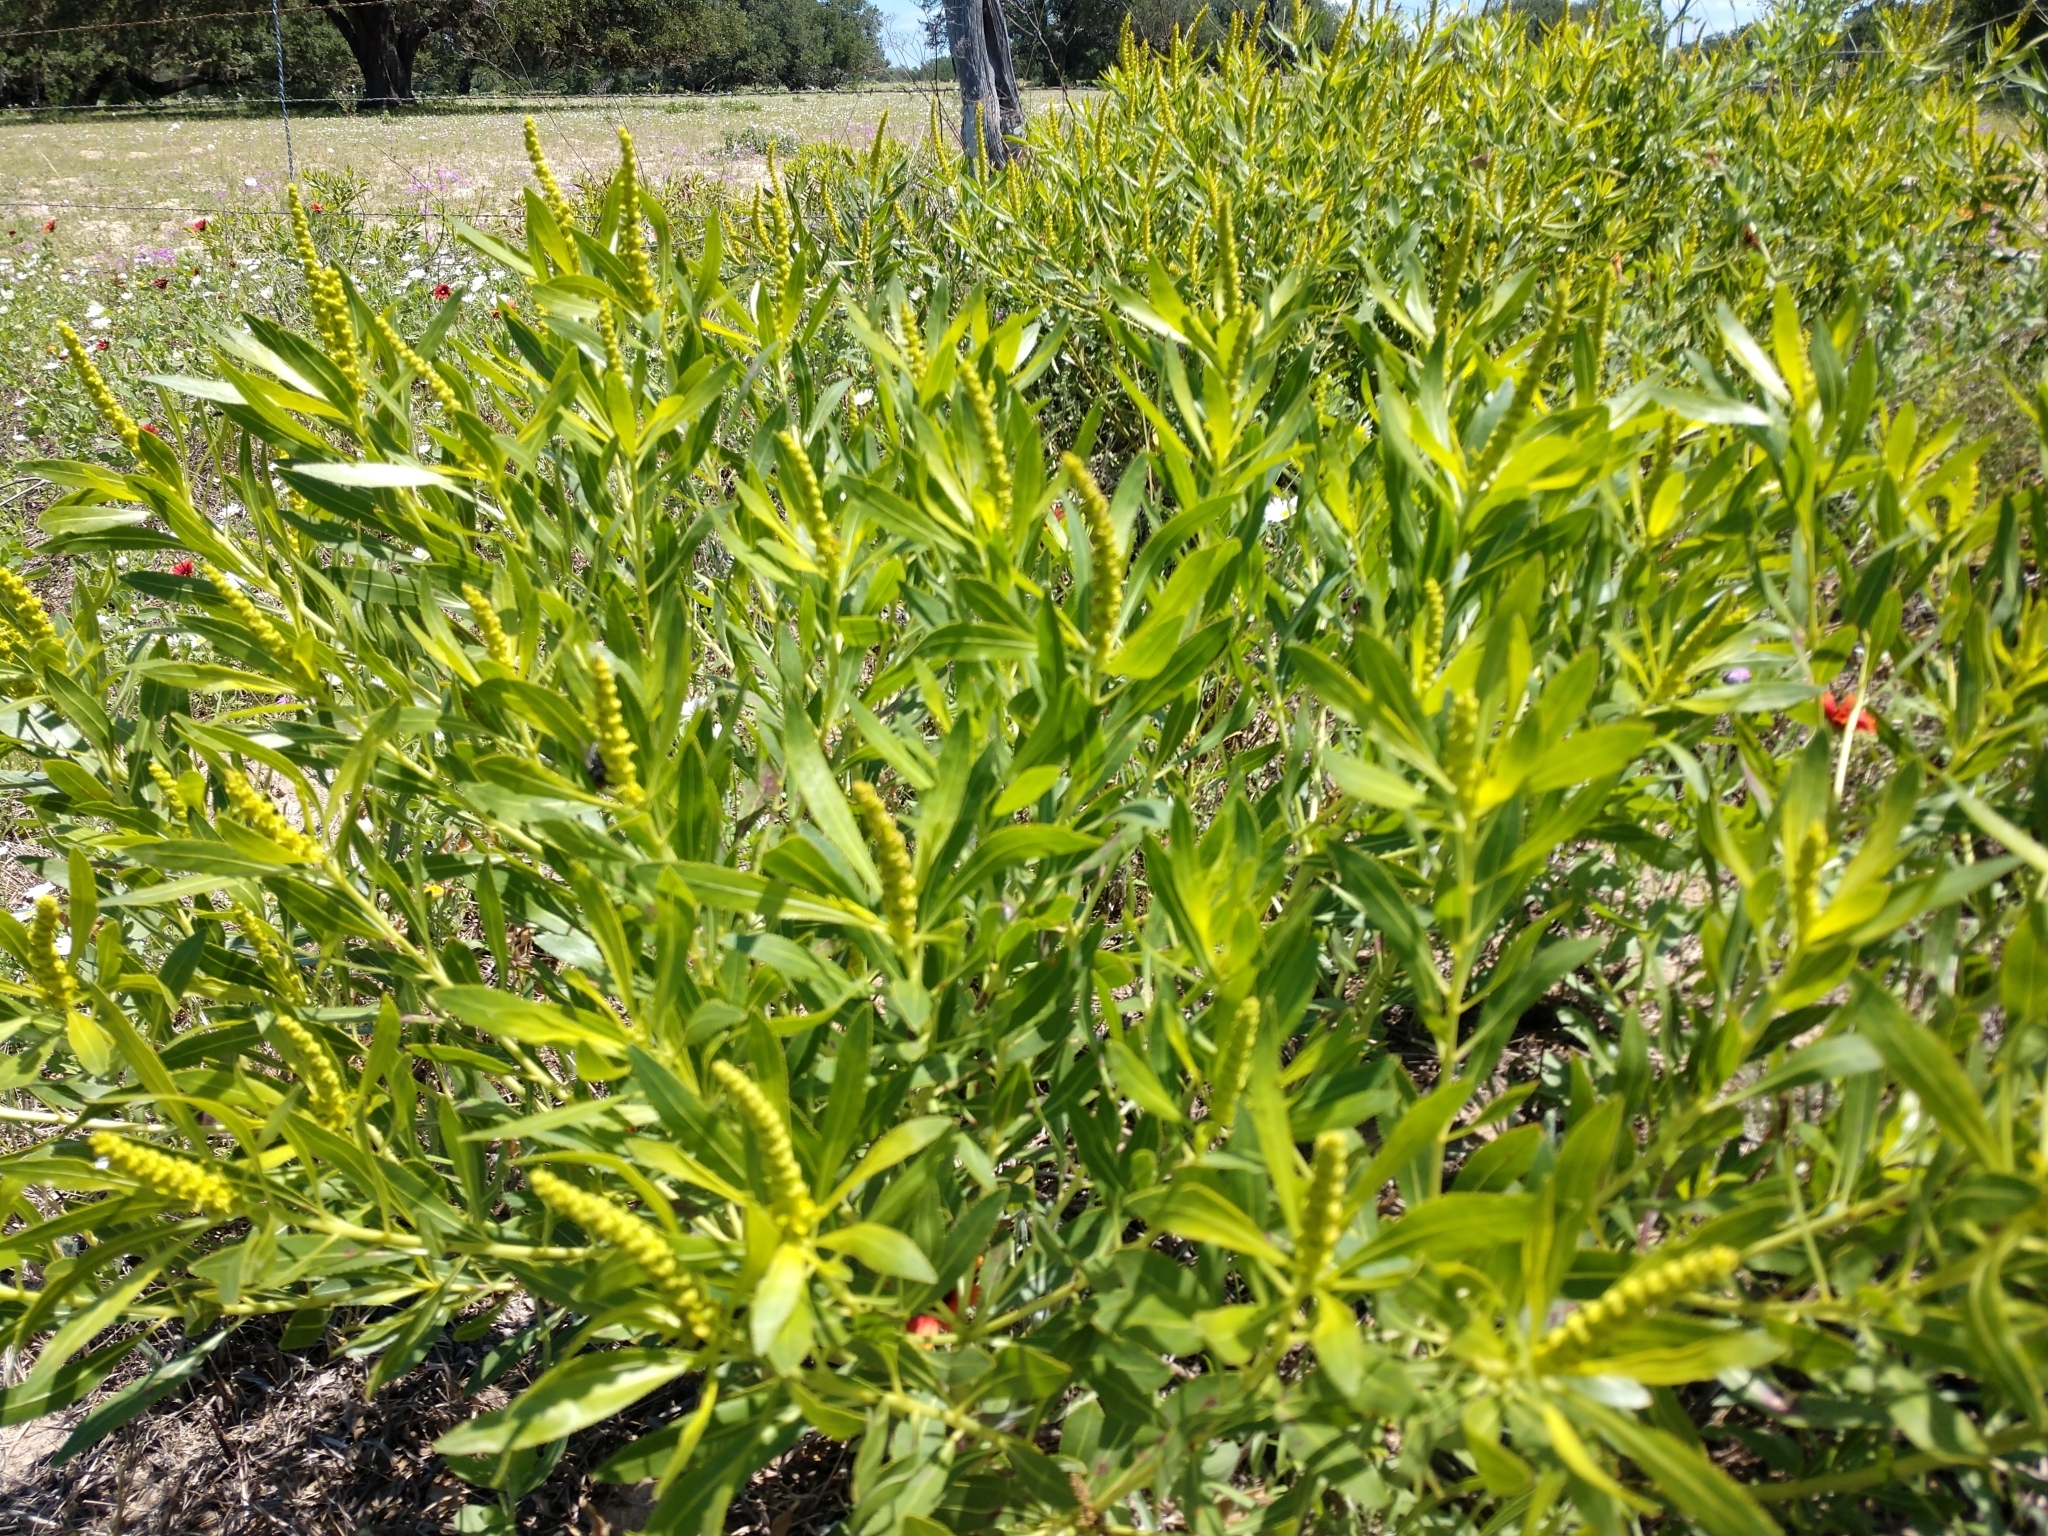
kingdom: Plantae
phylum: Tracheophyta
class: Magnoliopsida
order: Malpighiales
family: Euphorbiaceae
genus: Stillingia
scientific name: Stillingia sylvatica
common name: Queen's-delight
